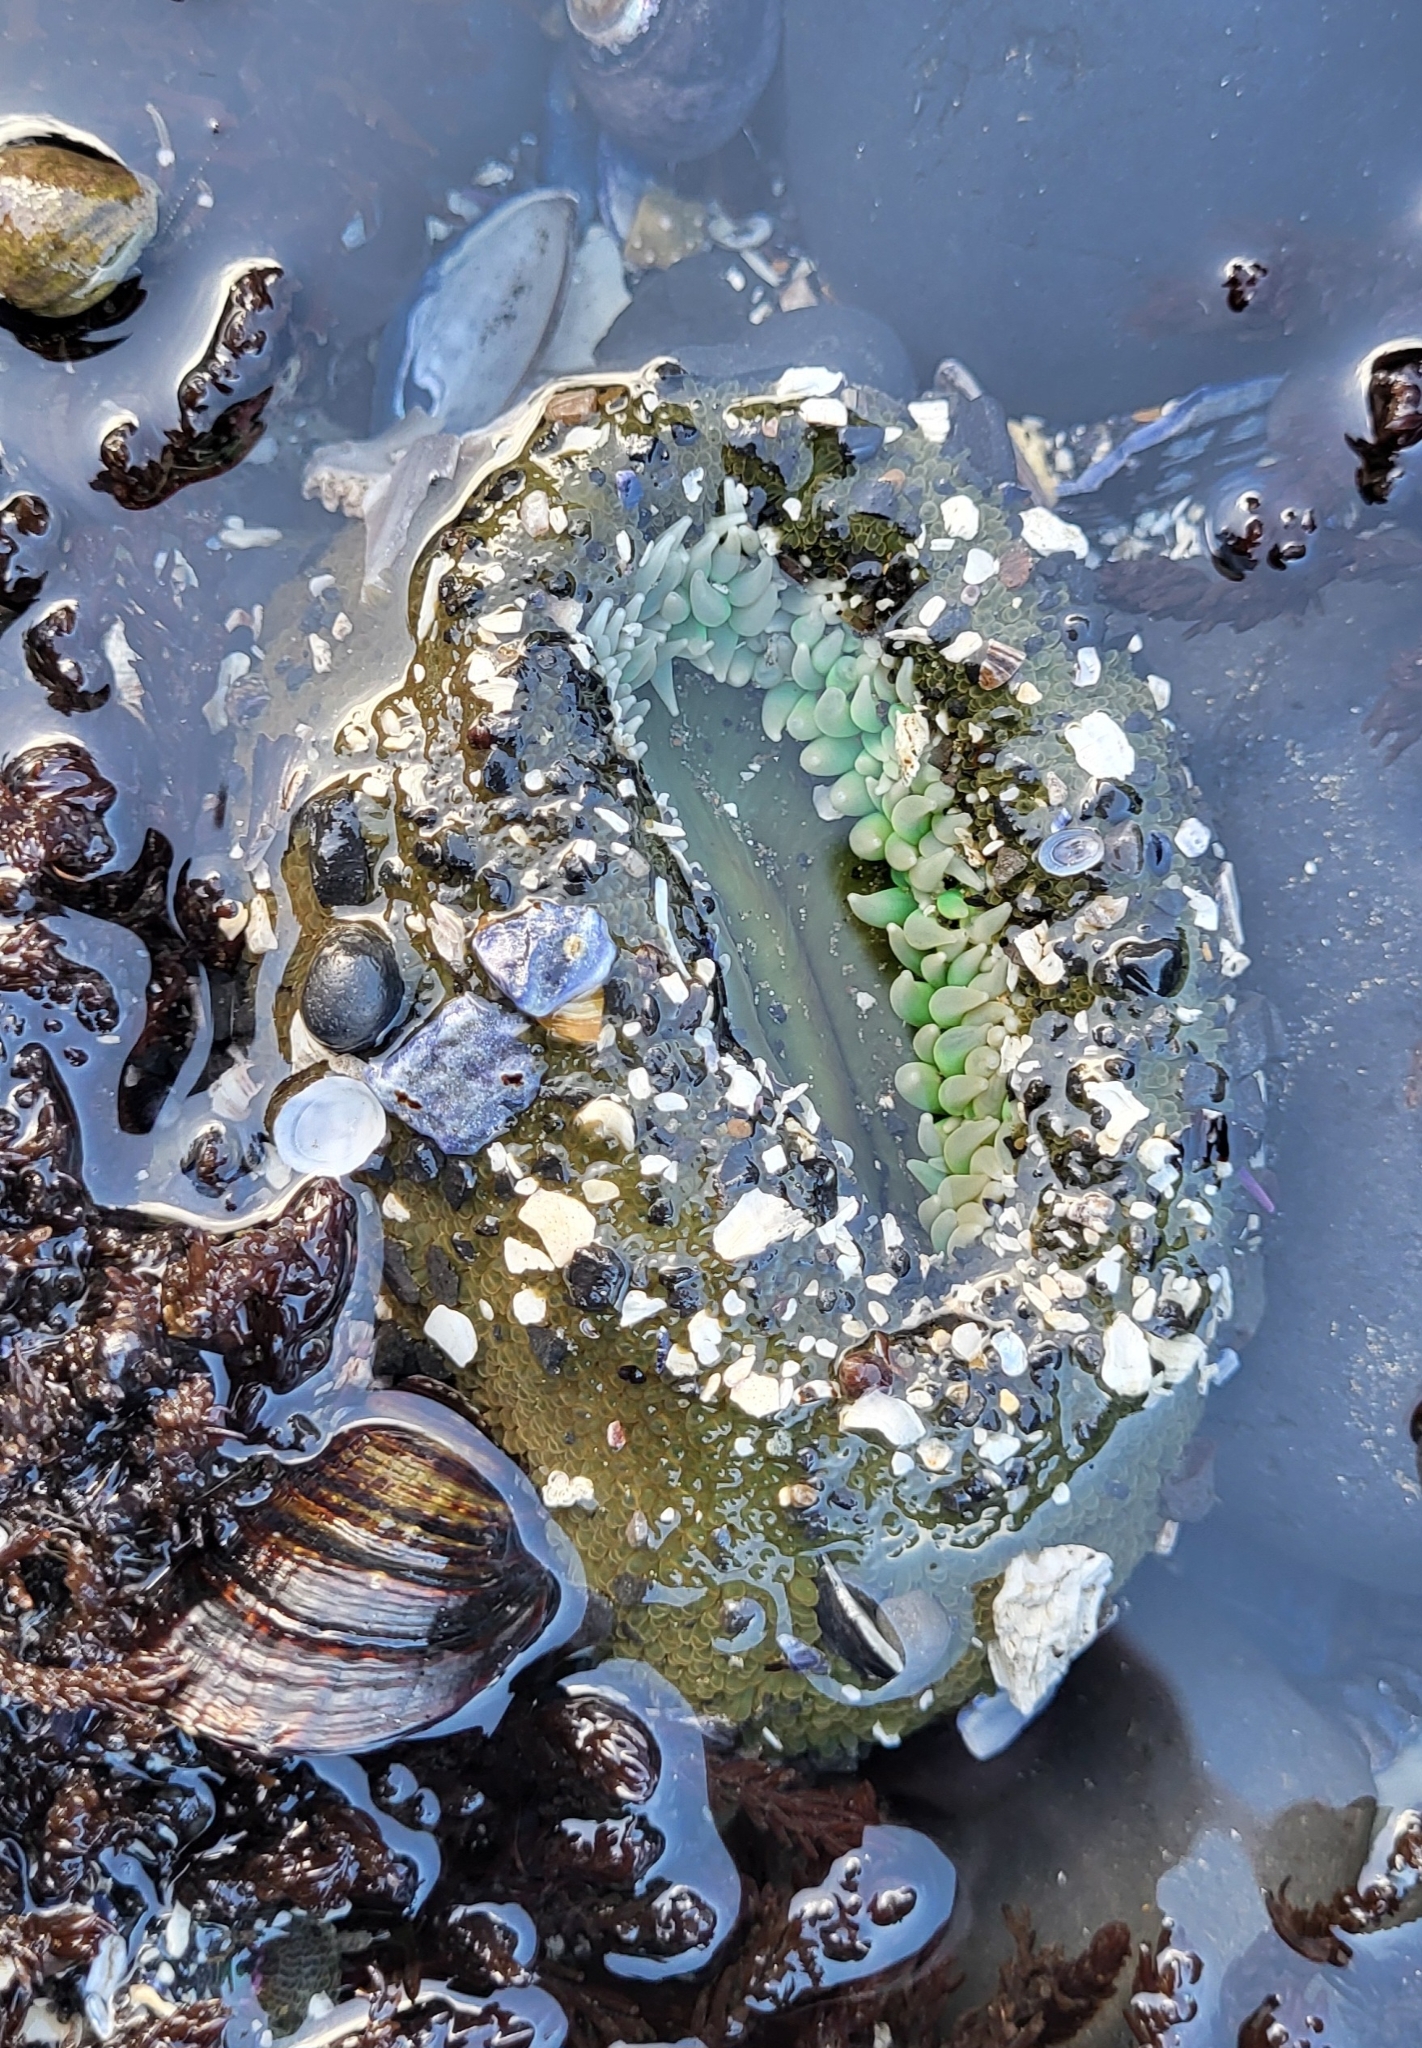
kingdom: Animalia
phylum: Cnidaria
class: Anthozoa
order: Actiniaria
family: Actiniidae
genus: Anthopleura
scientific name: Anthopleura xanthogrammica
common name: Giant green anemone
